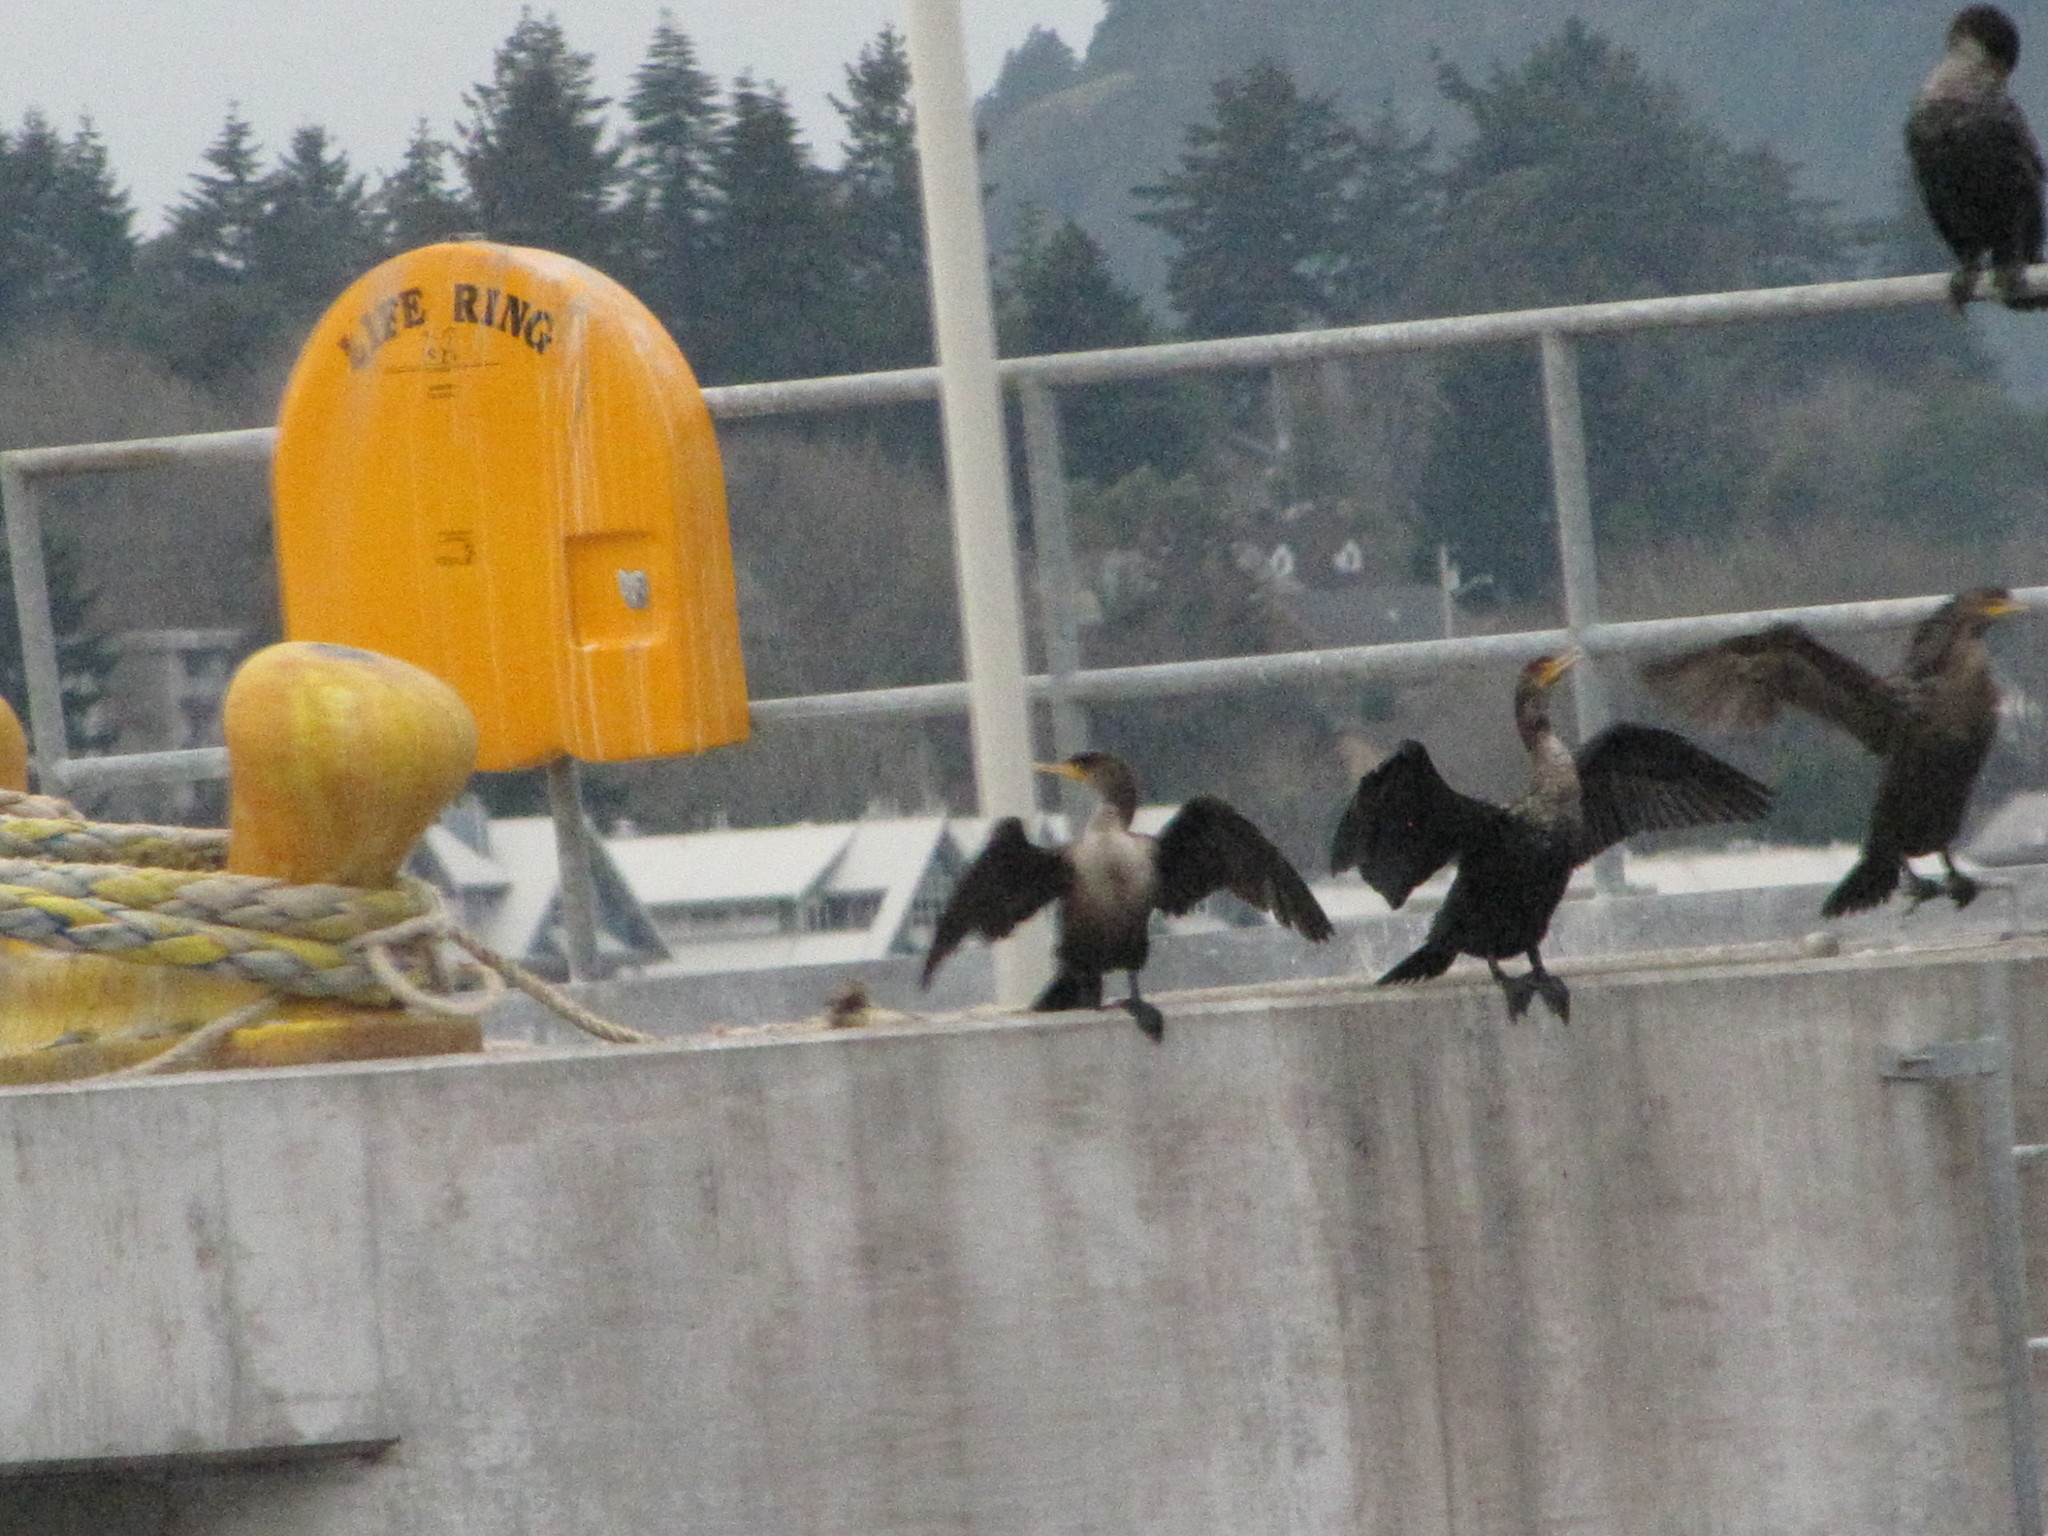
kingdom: Animalia
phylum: Chordata
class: Aves
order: Suliformes
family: Phalacrocoracidae
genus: Phalacrocorax
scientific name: Phalacrocorax auritus
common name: Double-crested cormorant
